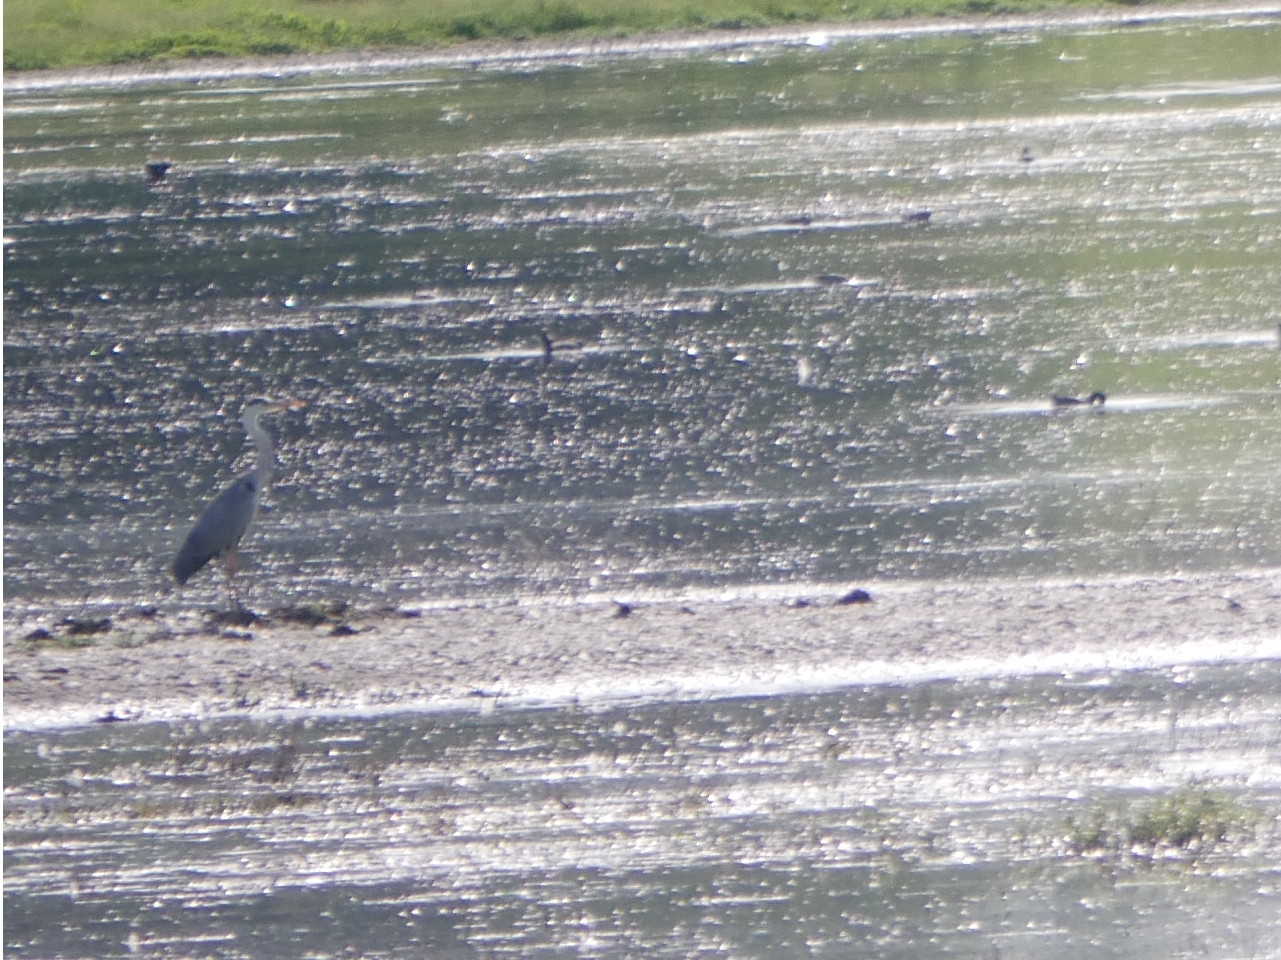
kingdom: Animalia
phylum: Chordata
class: Aves
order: Pelecaniformes
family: Ardeidae
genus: Ardea
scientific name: Ardea cinerea
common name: Grey heron
